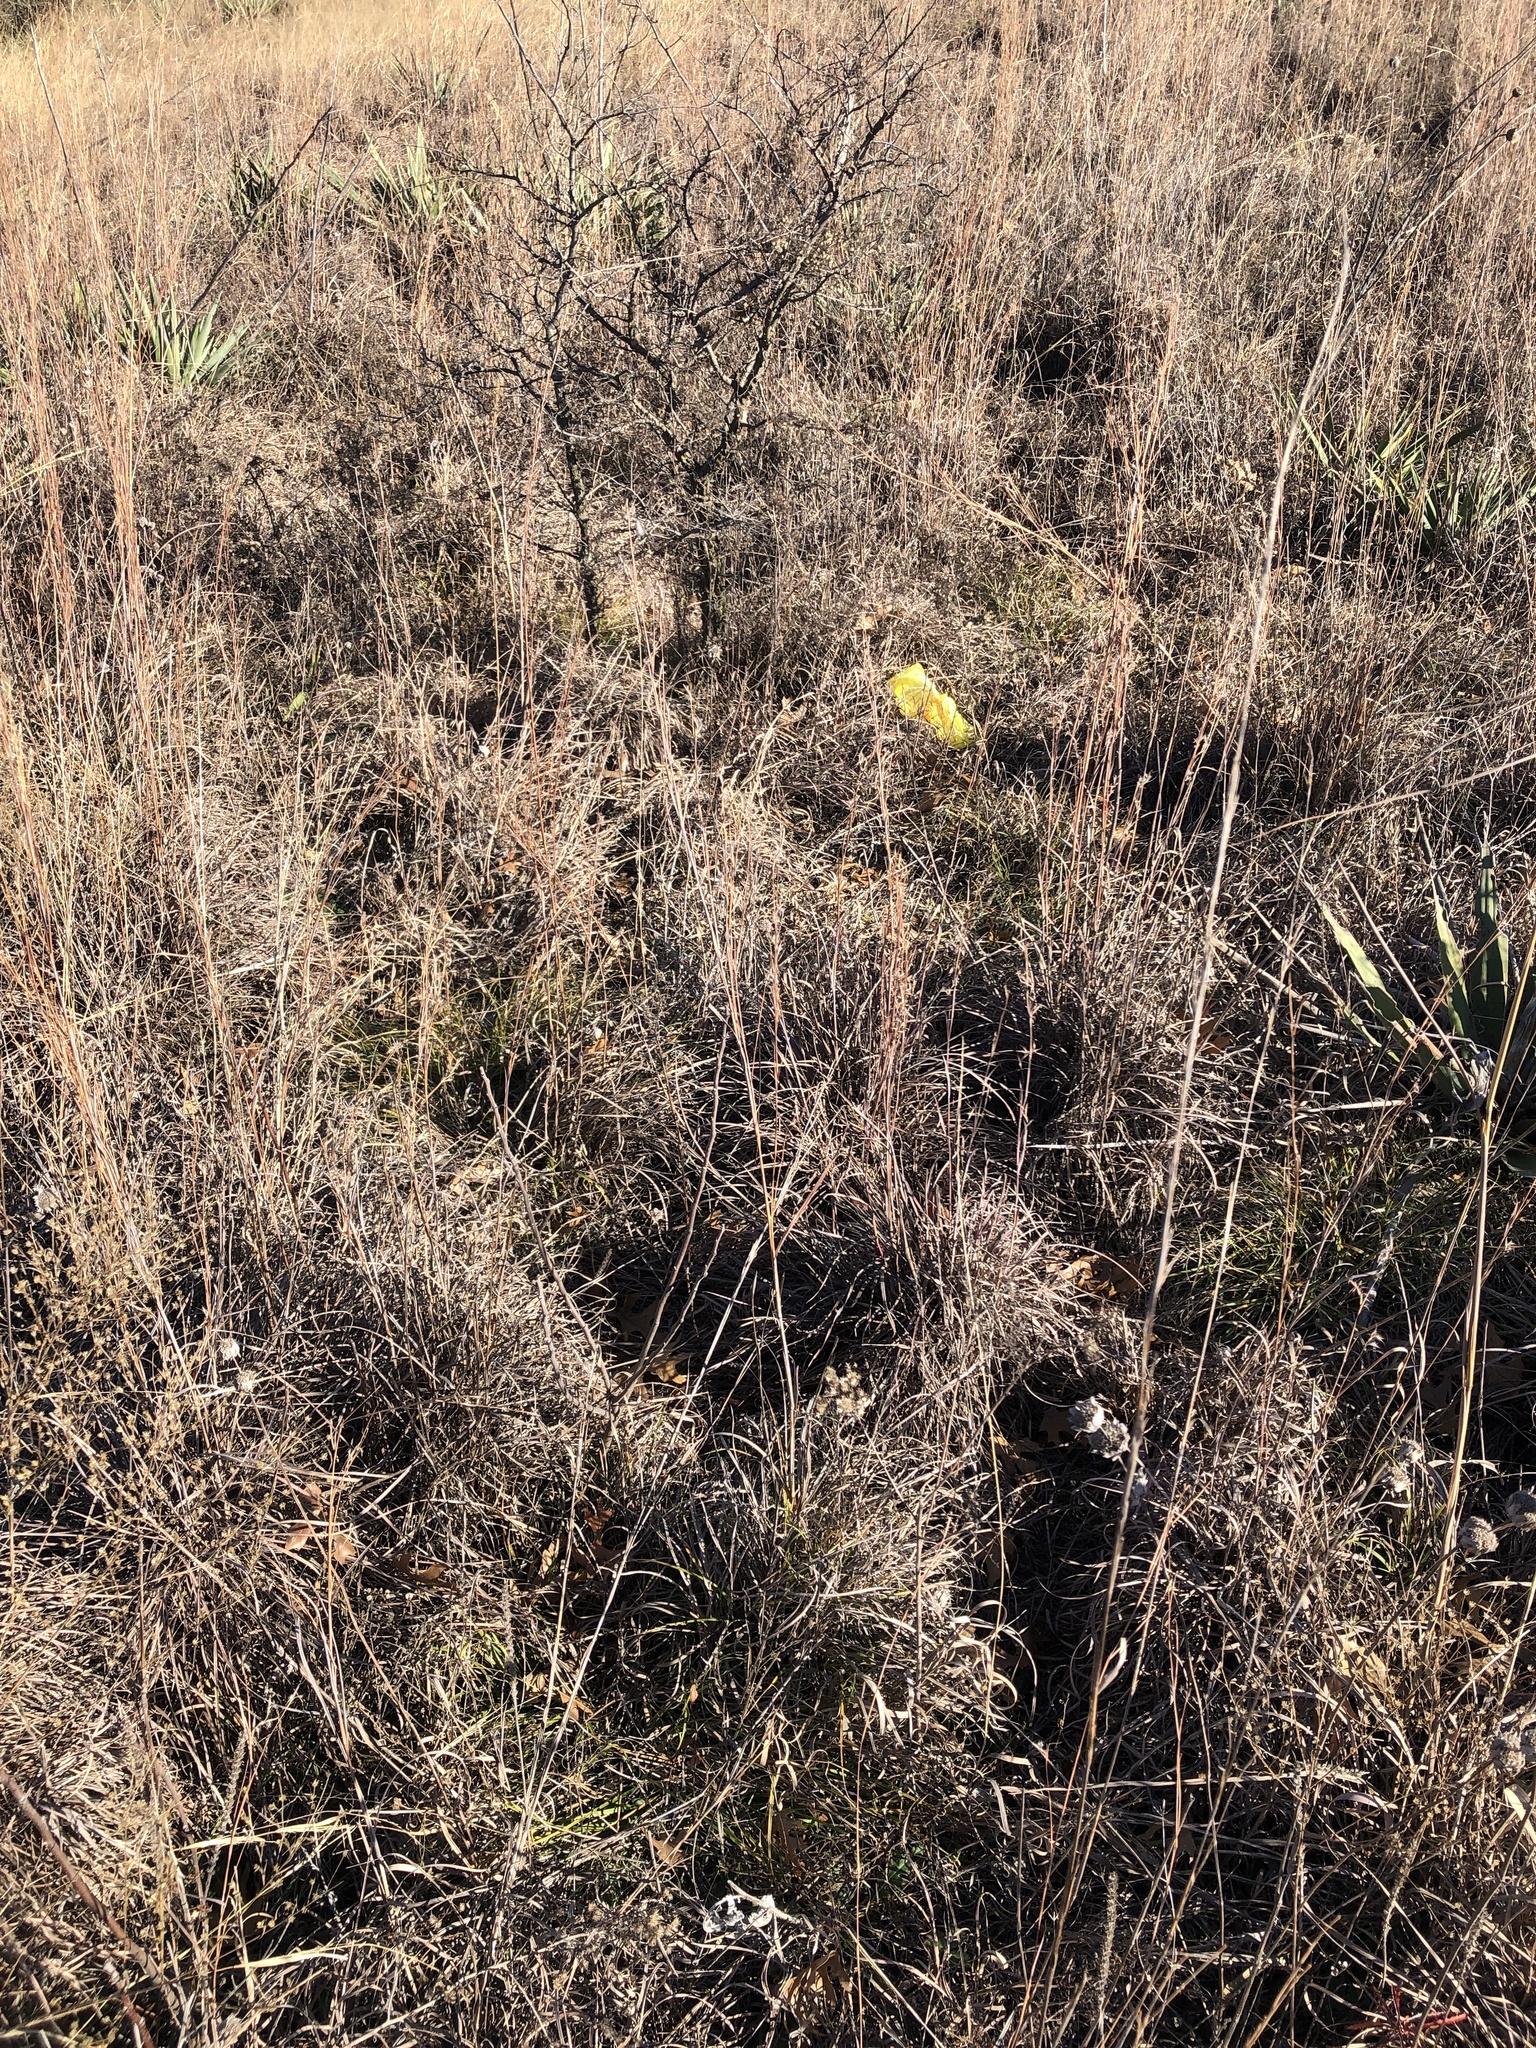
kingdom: Plantae
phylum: Tracheophyta
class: Liliopsida
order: Poales
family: Poaceae
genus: Schizachyrium
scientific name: Schizachyrium scoparium
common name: Little bluestem
